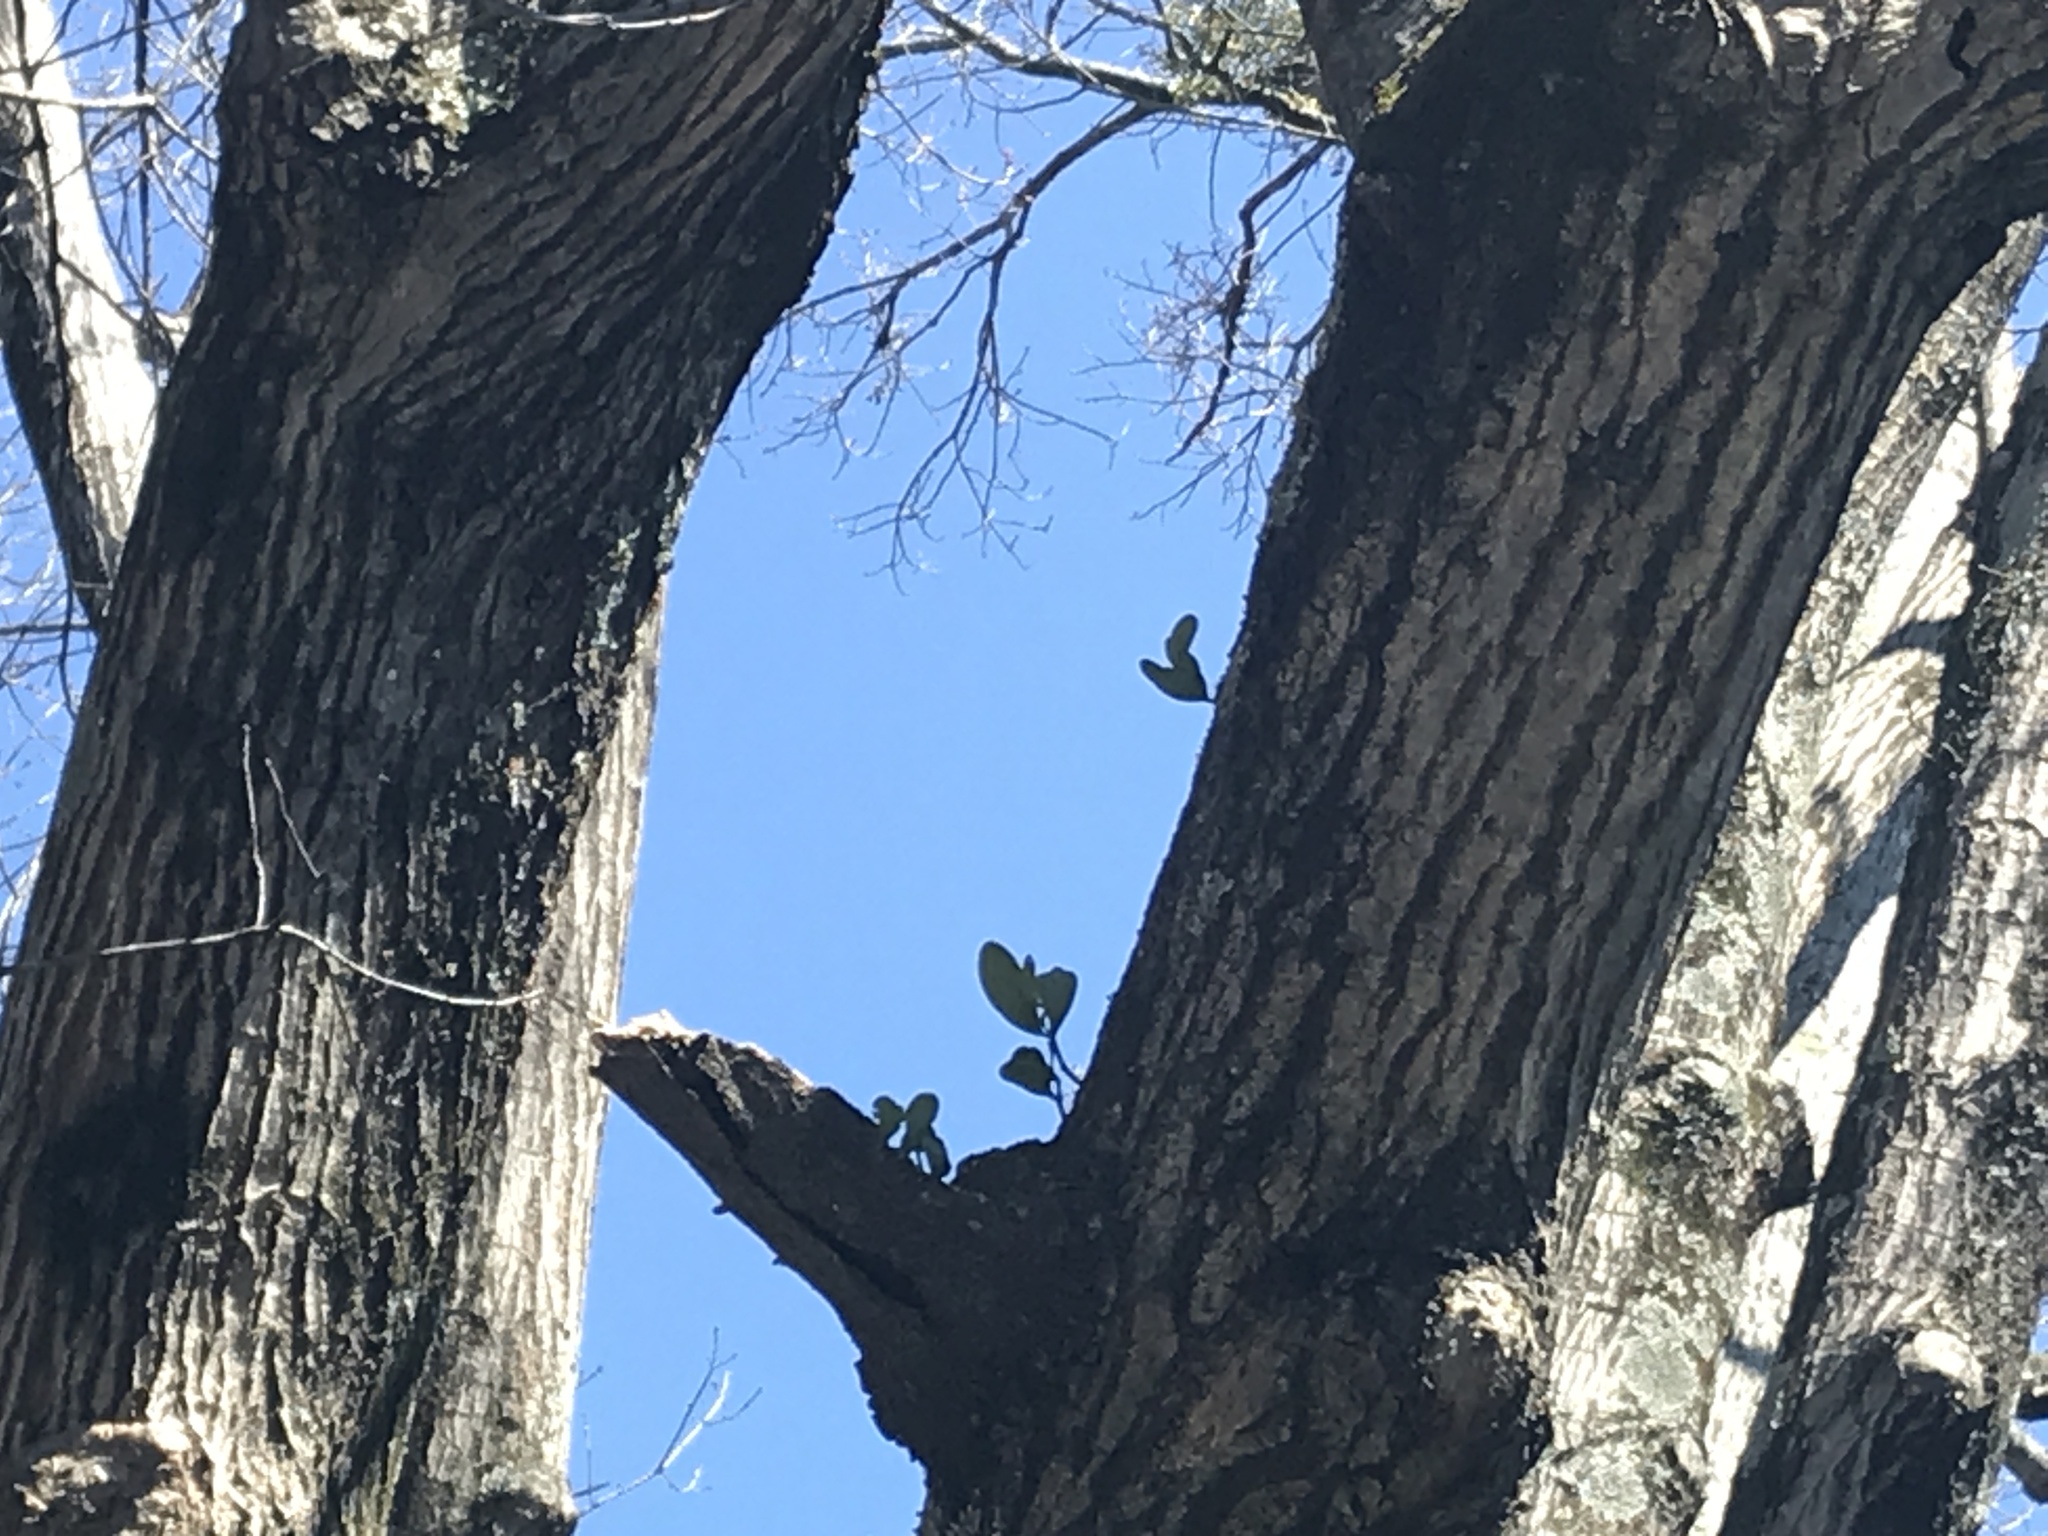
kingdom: Plantae
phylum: Tracheophyta
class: Magnoliopsida
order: Santalales
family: Viscaceae
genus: Phoradendron
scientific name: Phoradendron leucarpum
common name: Pacific mistletoe
